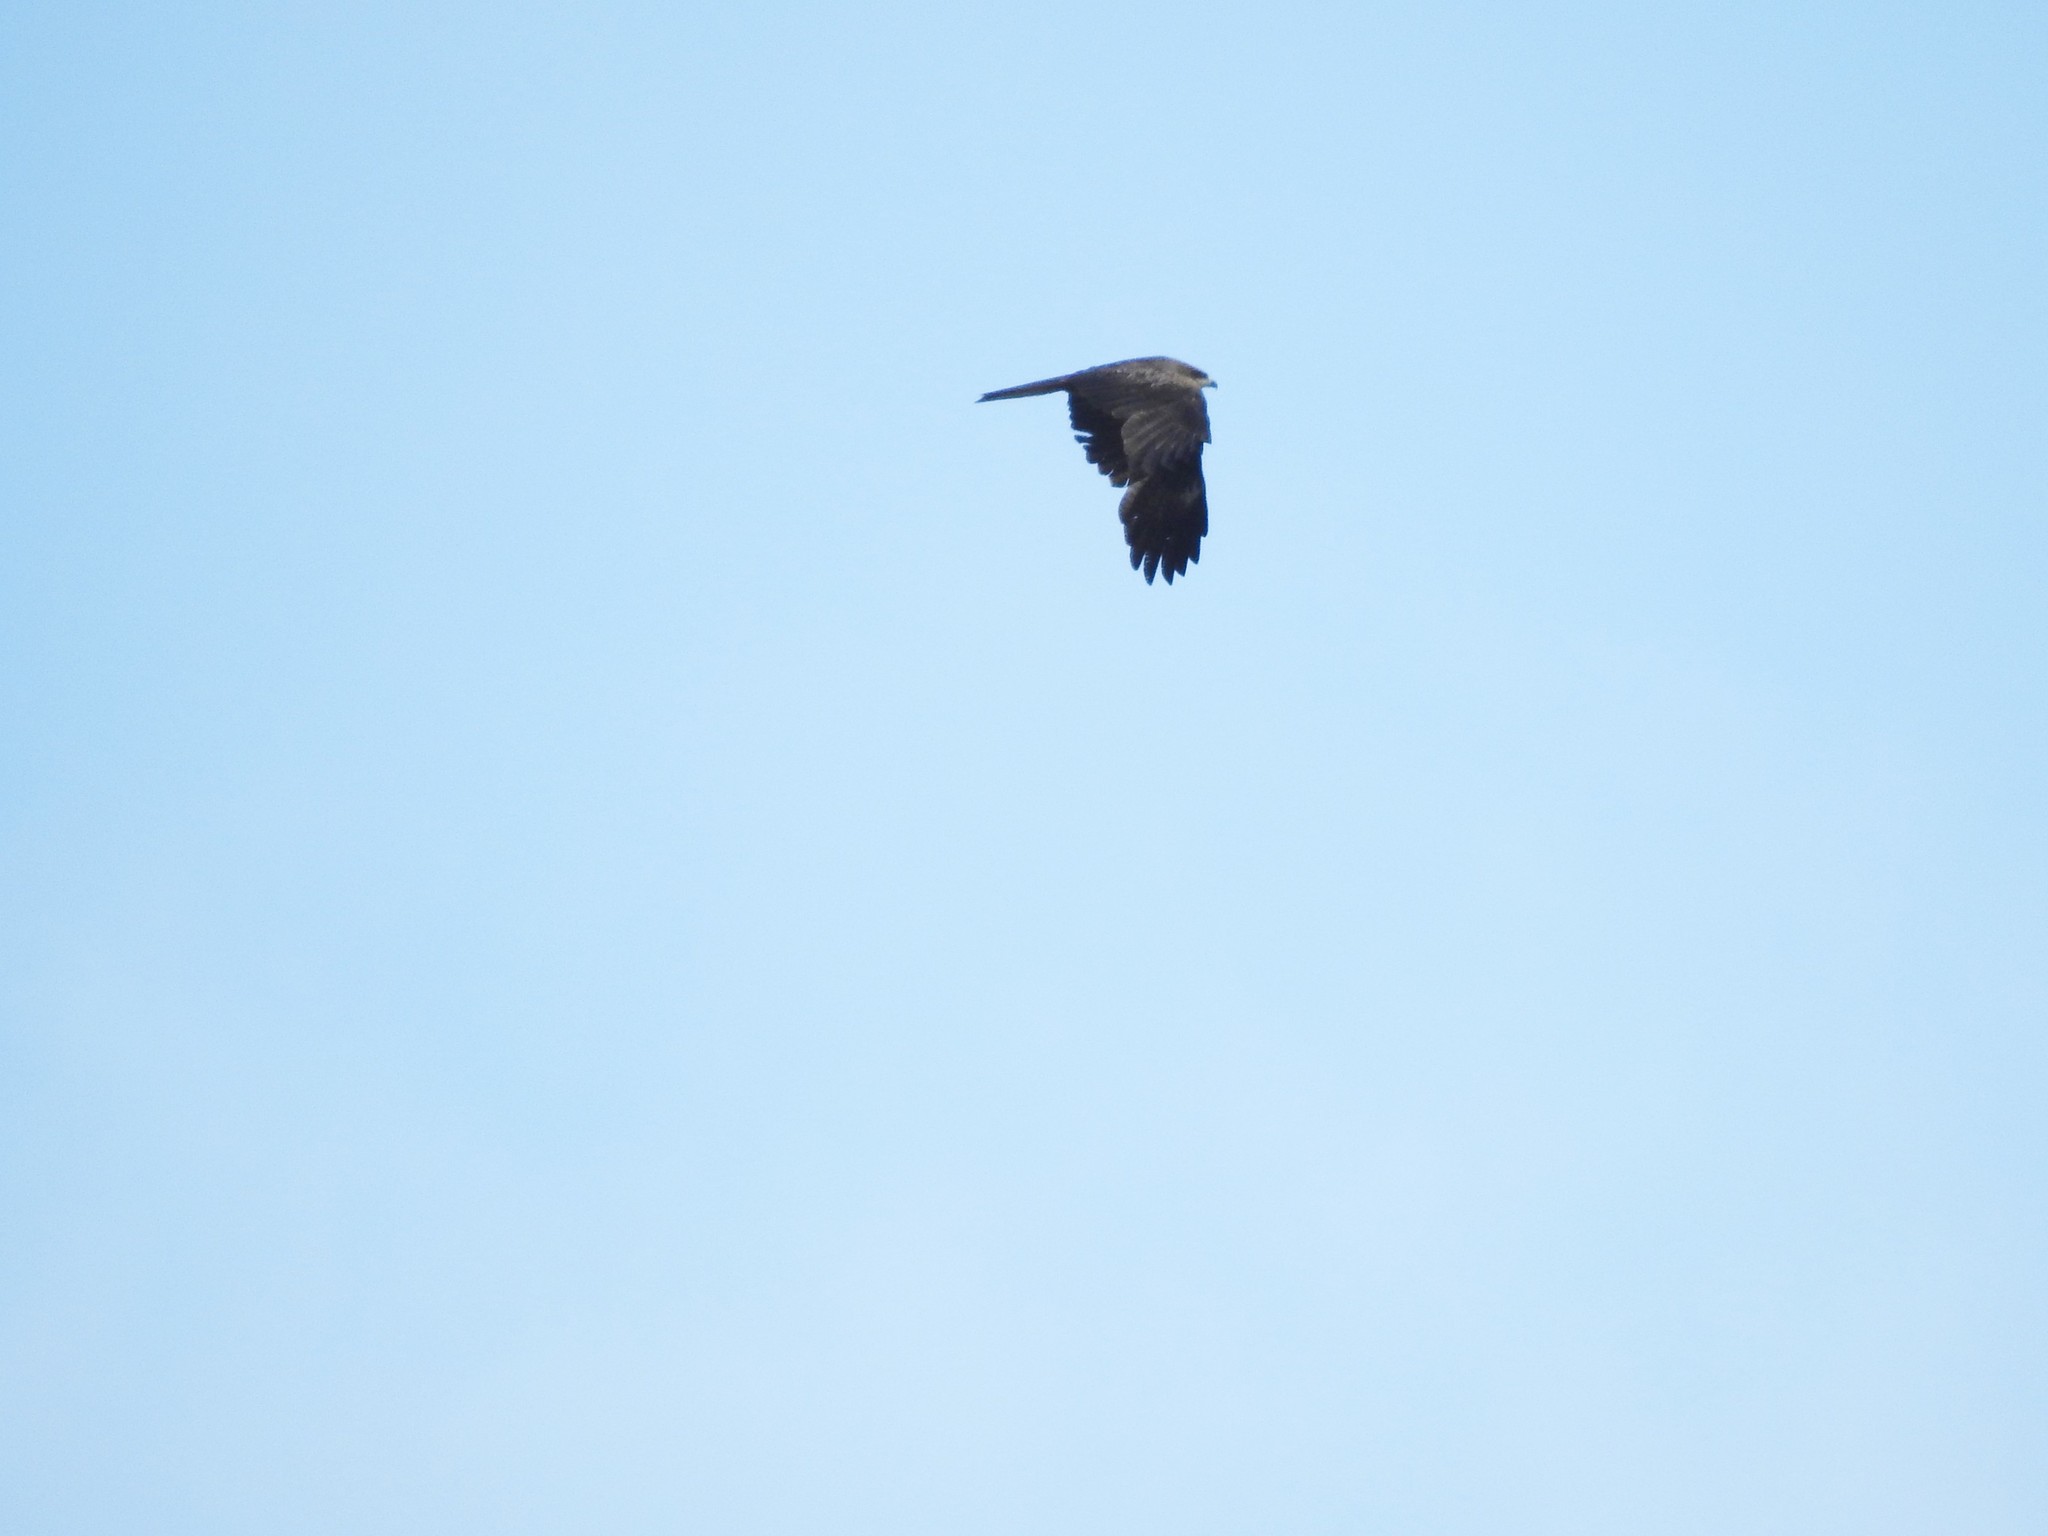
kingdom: Animalia
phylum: Chordata
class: Aves
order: Accipitriformes
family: Accipitridae
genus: Milvus
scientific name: Milvus migrans
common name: Black kite
